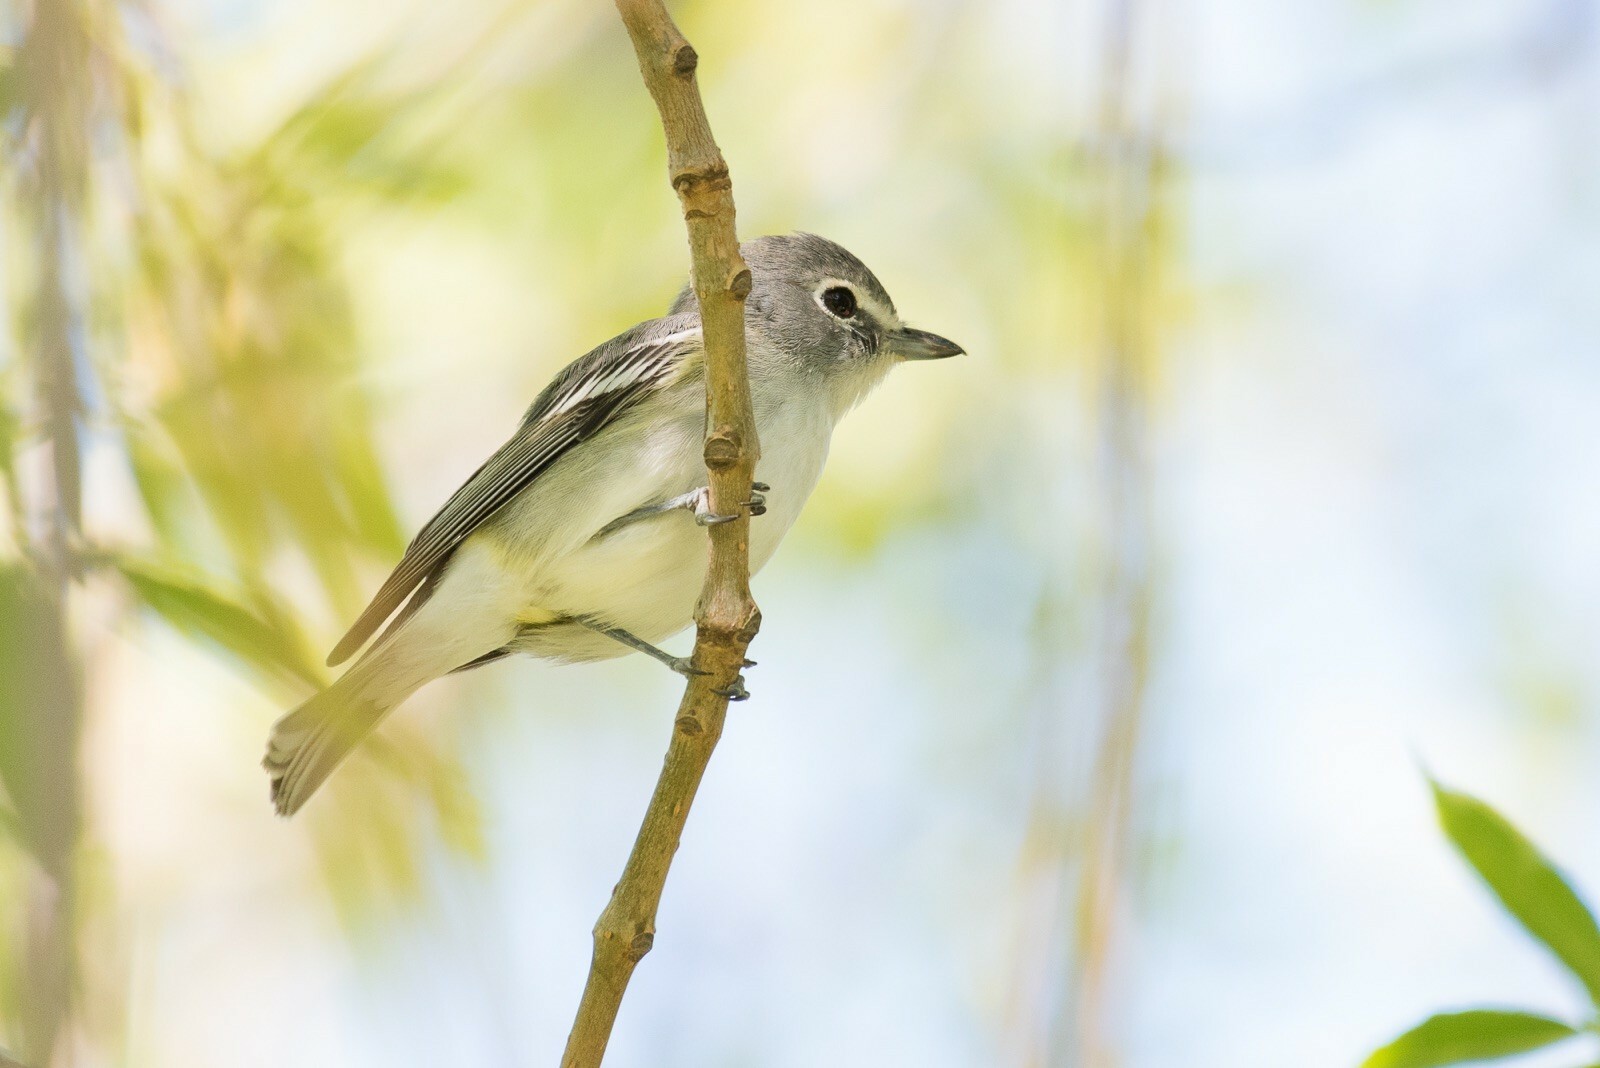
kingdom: Animalia
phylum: Chordata
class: Aves
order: Passeriformes
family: Vireonidae
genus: Vireo
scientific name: Vireo plumbeus
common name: Plumbeous vireo
